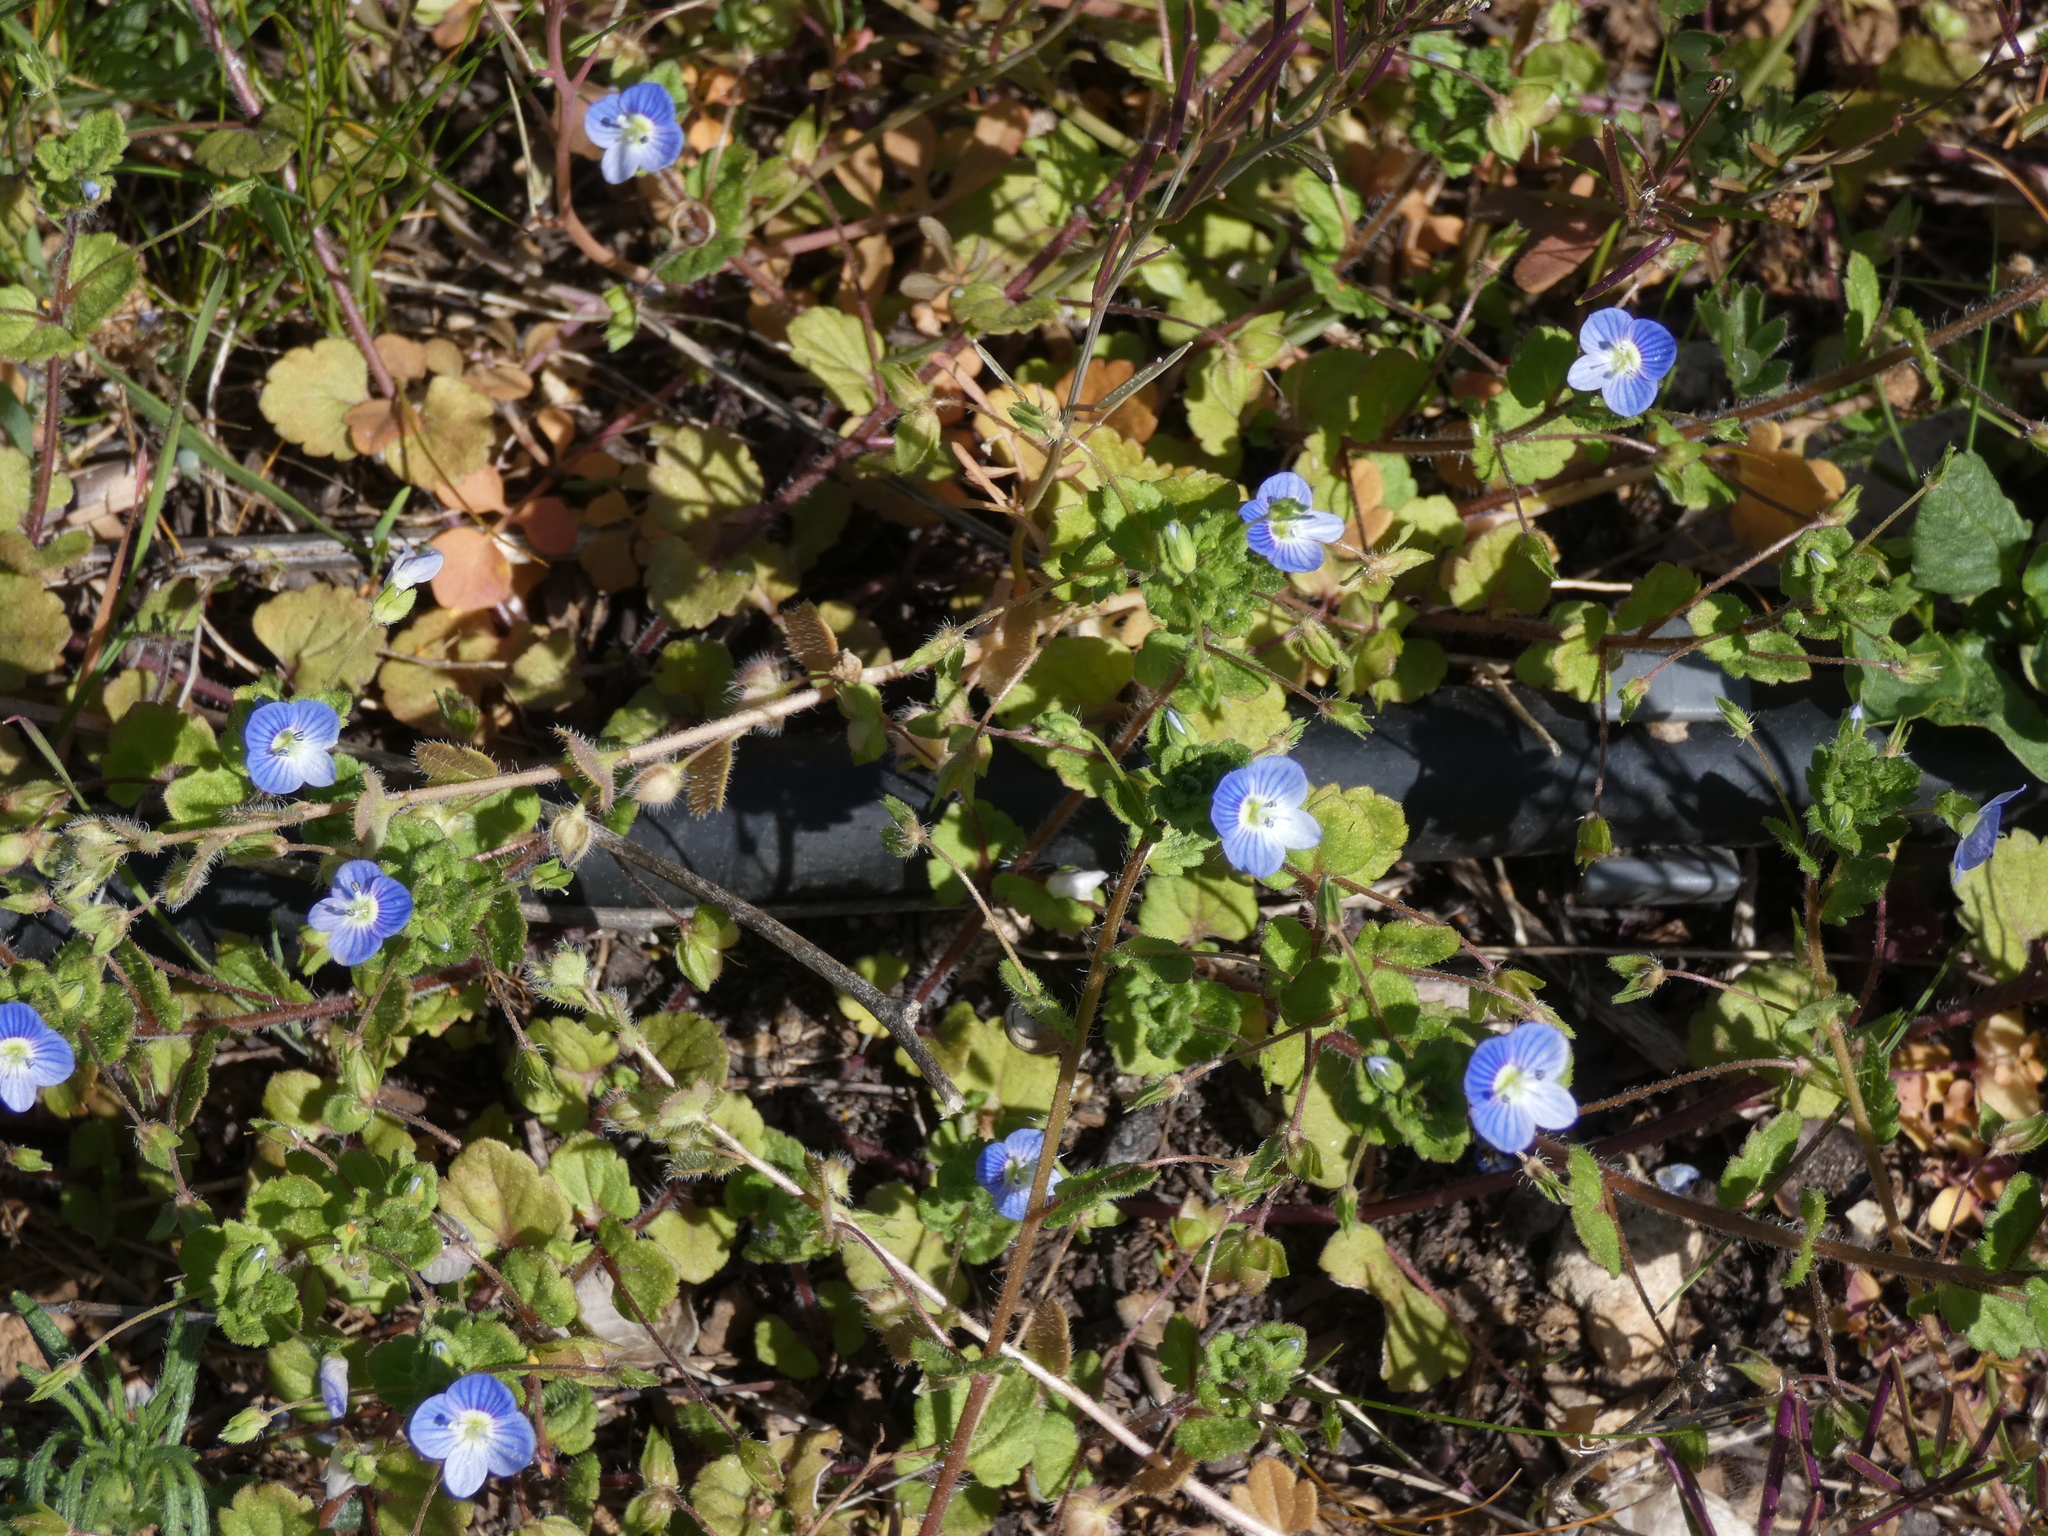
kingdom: Plantae
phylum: Tracheophyta
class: Magnoliopsida
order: Lamiales
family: Plantaginaceae
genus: Veronica
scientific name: Veronica persica
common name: Common field-speedwell
